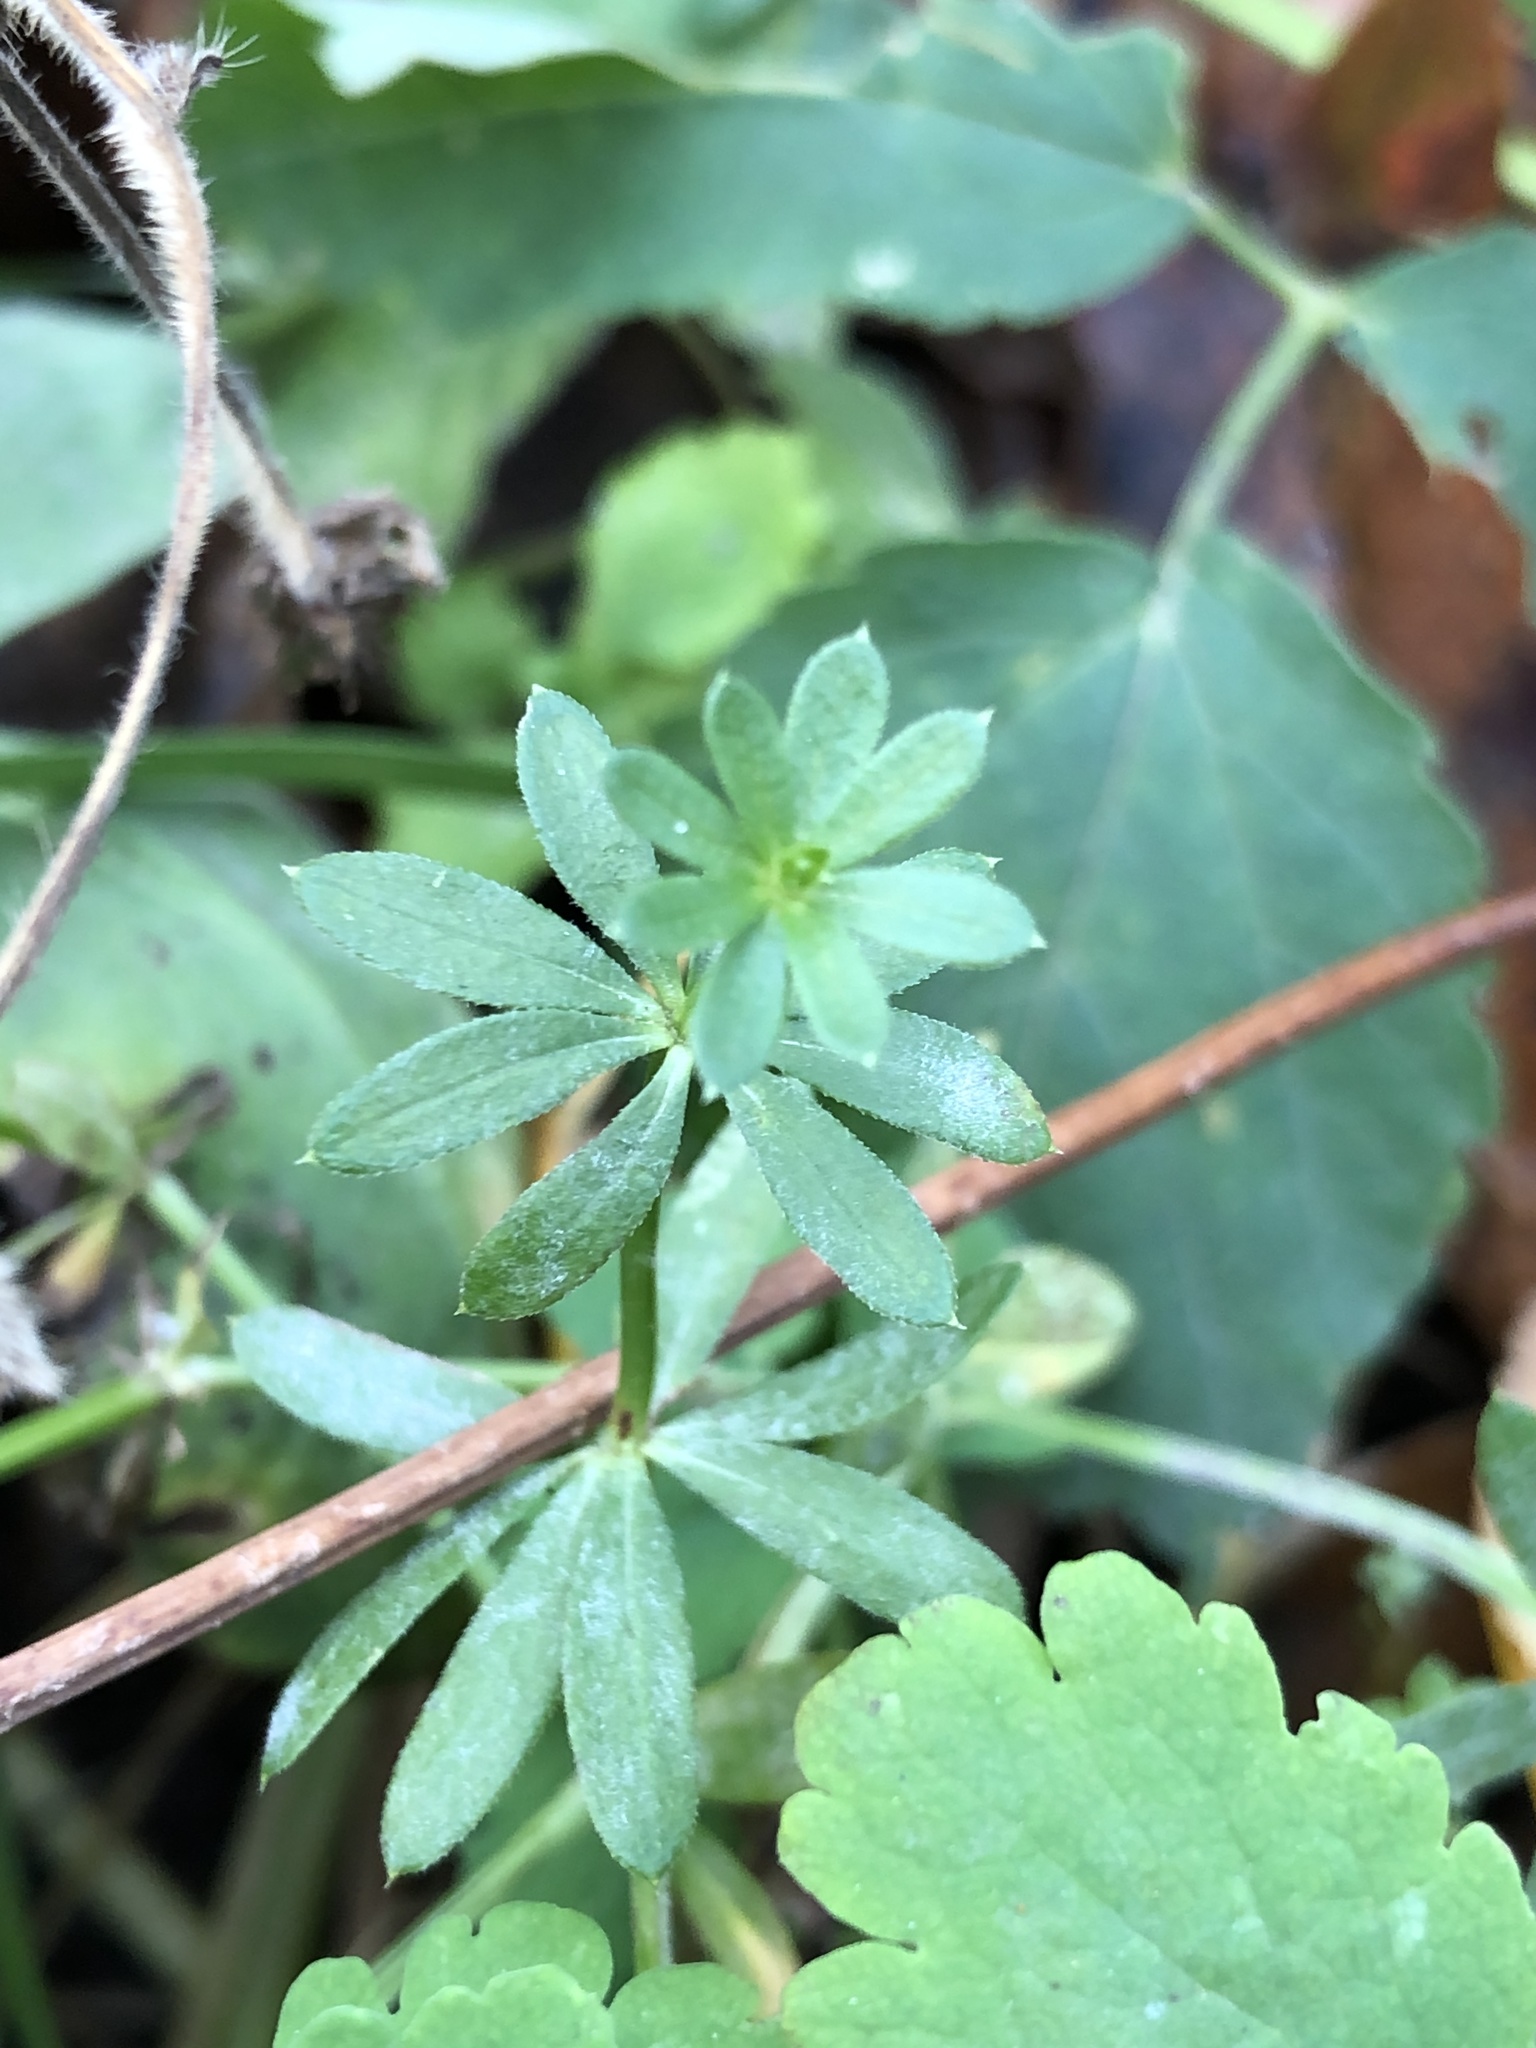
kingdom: Plantae
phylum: Tracheophyta
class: Magnoliopsida
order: Gentianales
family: Rubiaceae
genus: Galium
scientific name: Galium mollugo
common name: Hedge bedstraw
